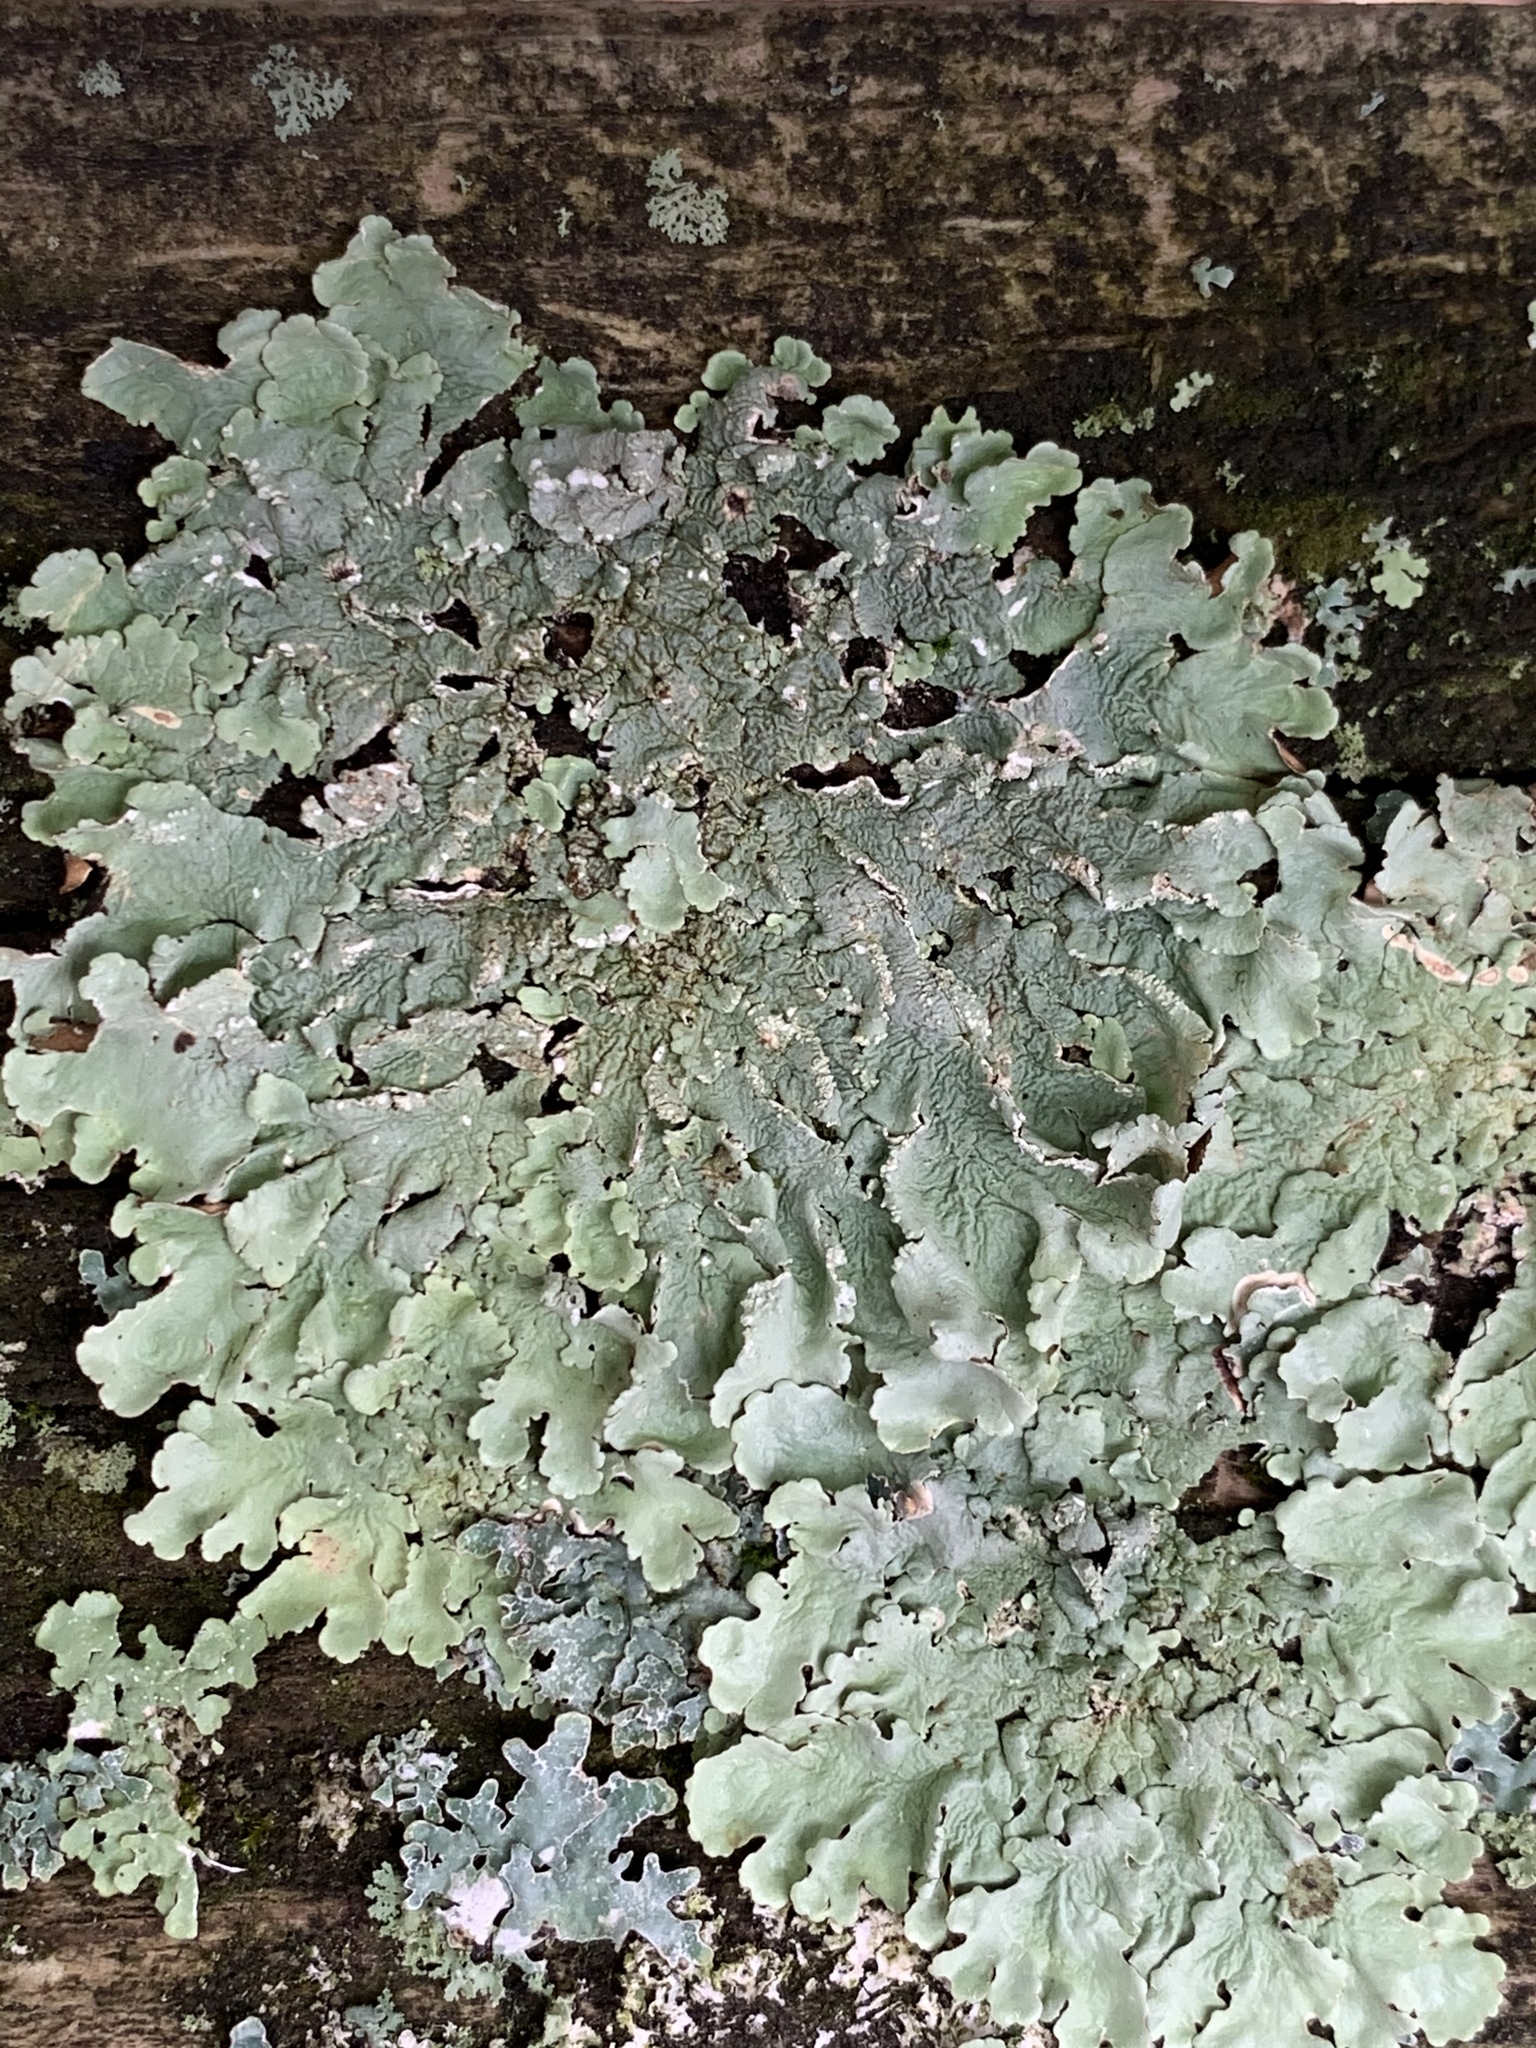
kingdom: Fungi
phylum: Ascomycota
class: Lecanoromycetes
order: Lecanorales
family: Parmeliaceae
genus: Flavoparmelia
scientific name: Flavoparmelia caperata
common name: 40-mile per hour lichen
